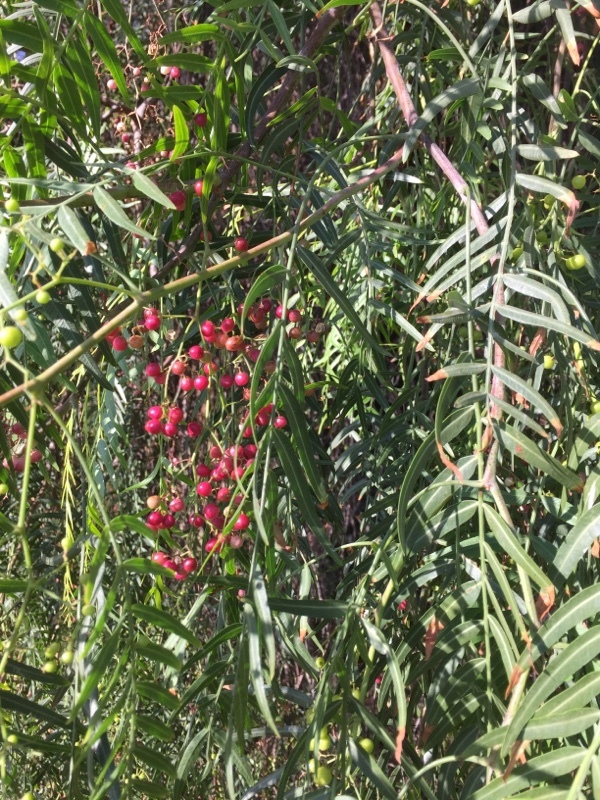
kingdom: Plantae
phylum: Tracheophyta
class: Magnoliopsida
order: Sapindales
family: Anacardiaceae
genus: Schinus
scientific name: Schinus molle
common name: Peruvian peppertree
